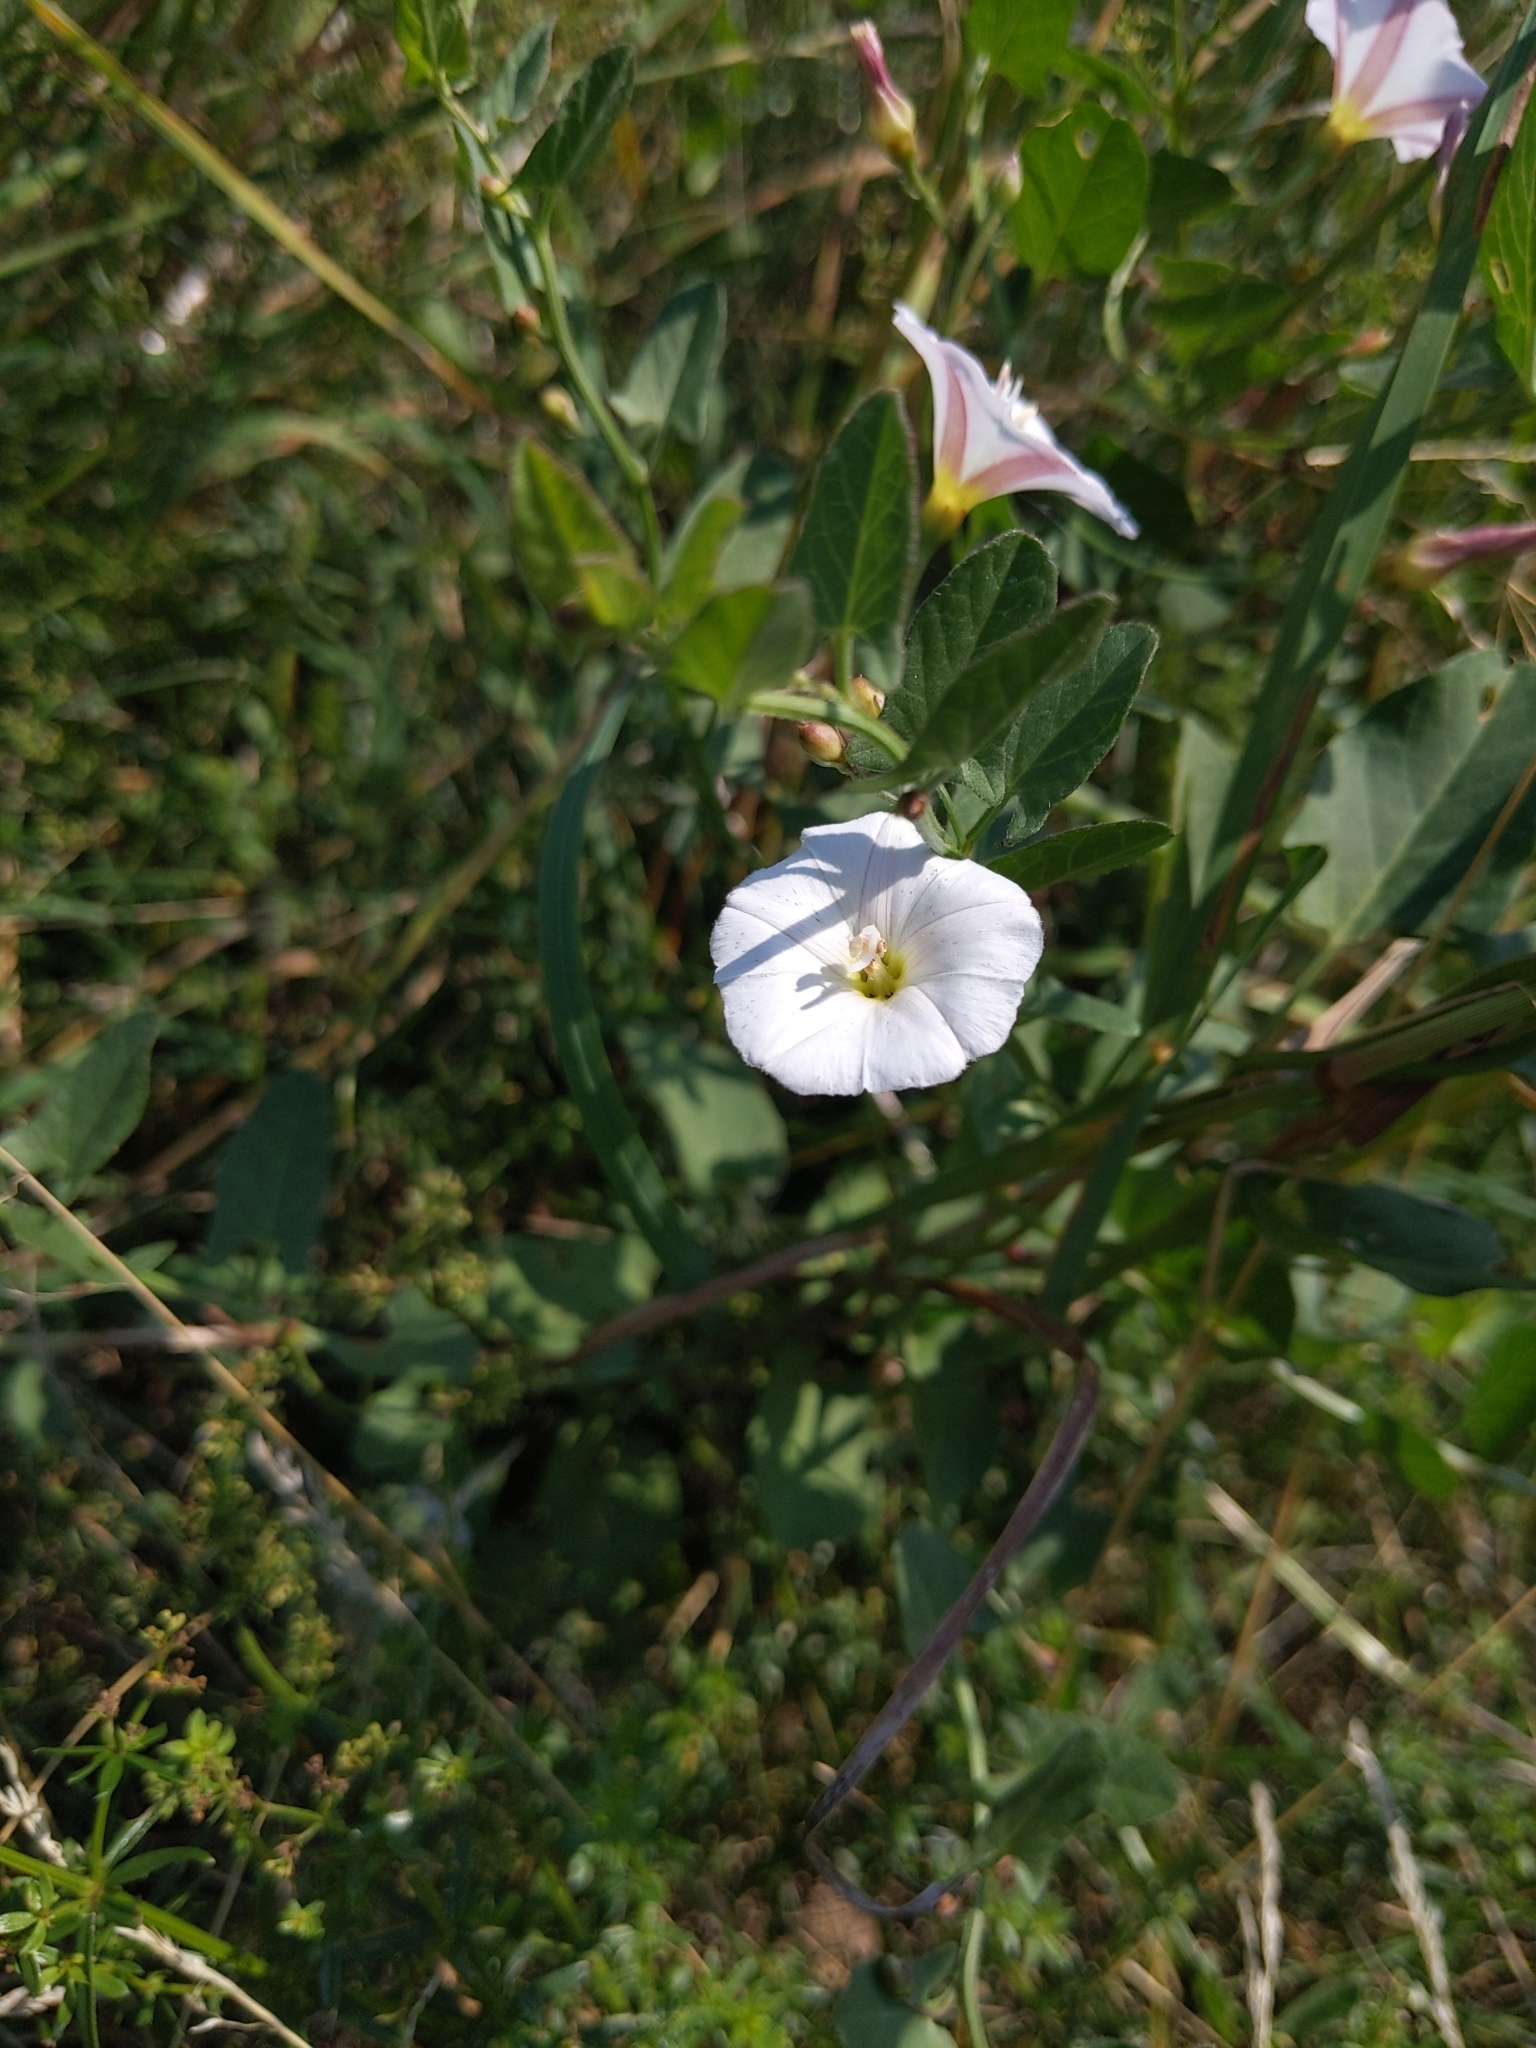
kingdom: Plantae
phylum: Tracheophyta
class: Magnoliopsida
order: Solanales
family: Convolvulaceae
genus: Convolvulus
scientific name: Convolvulus arvensis
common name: Field bindweed
